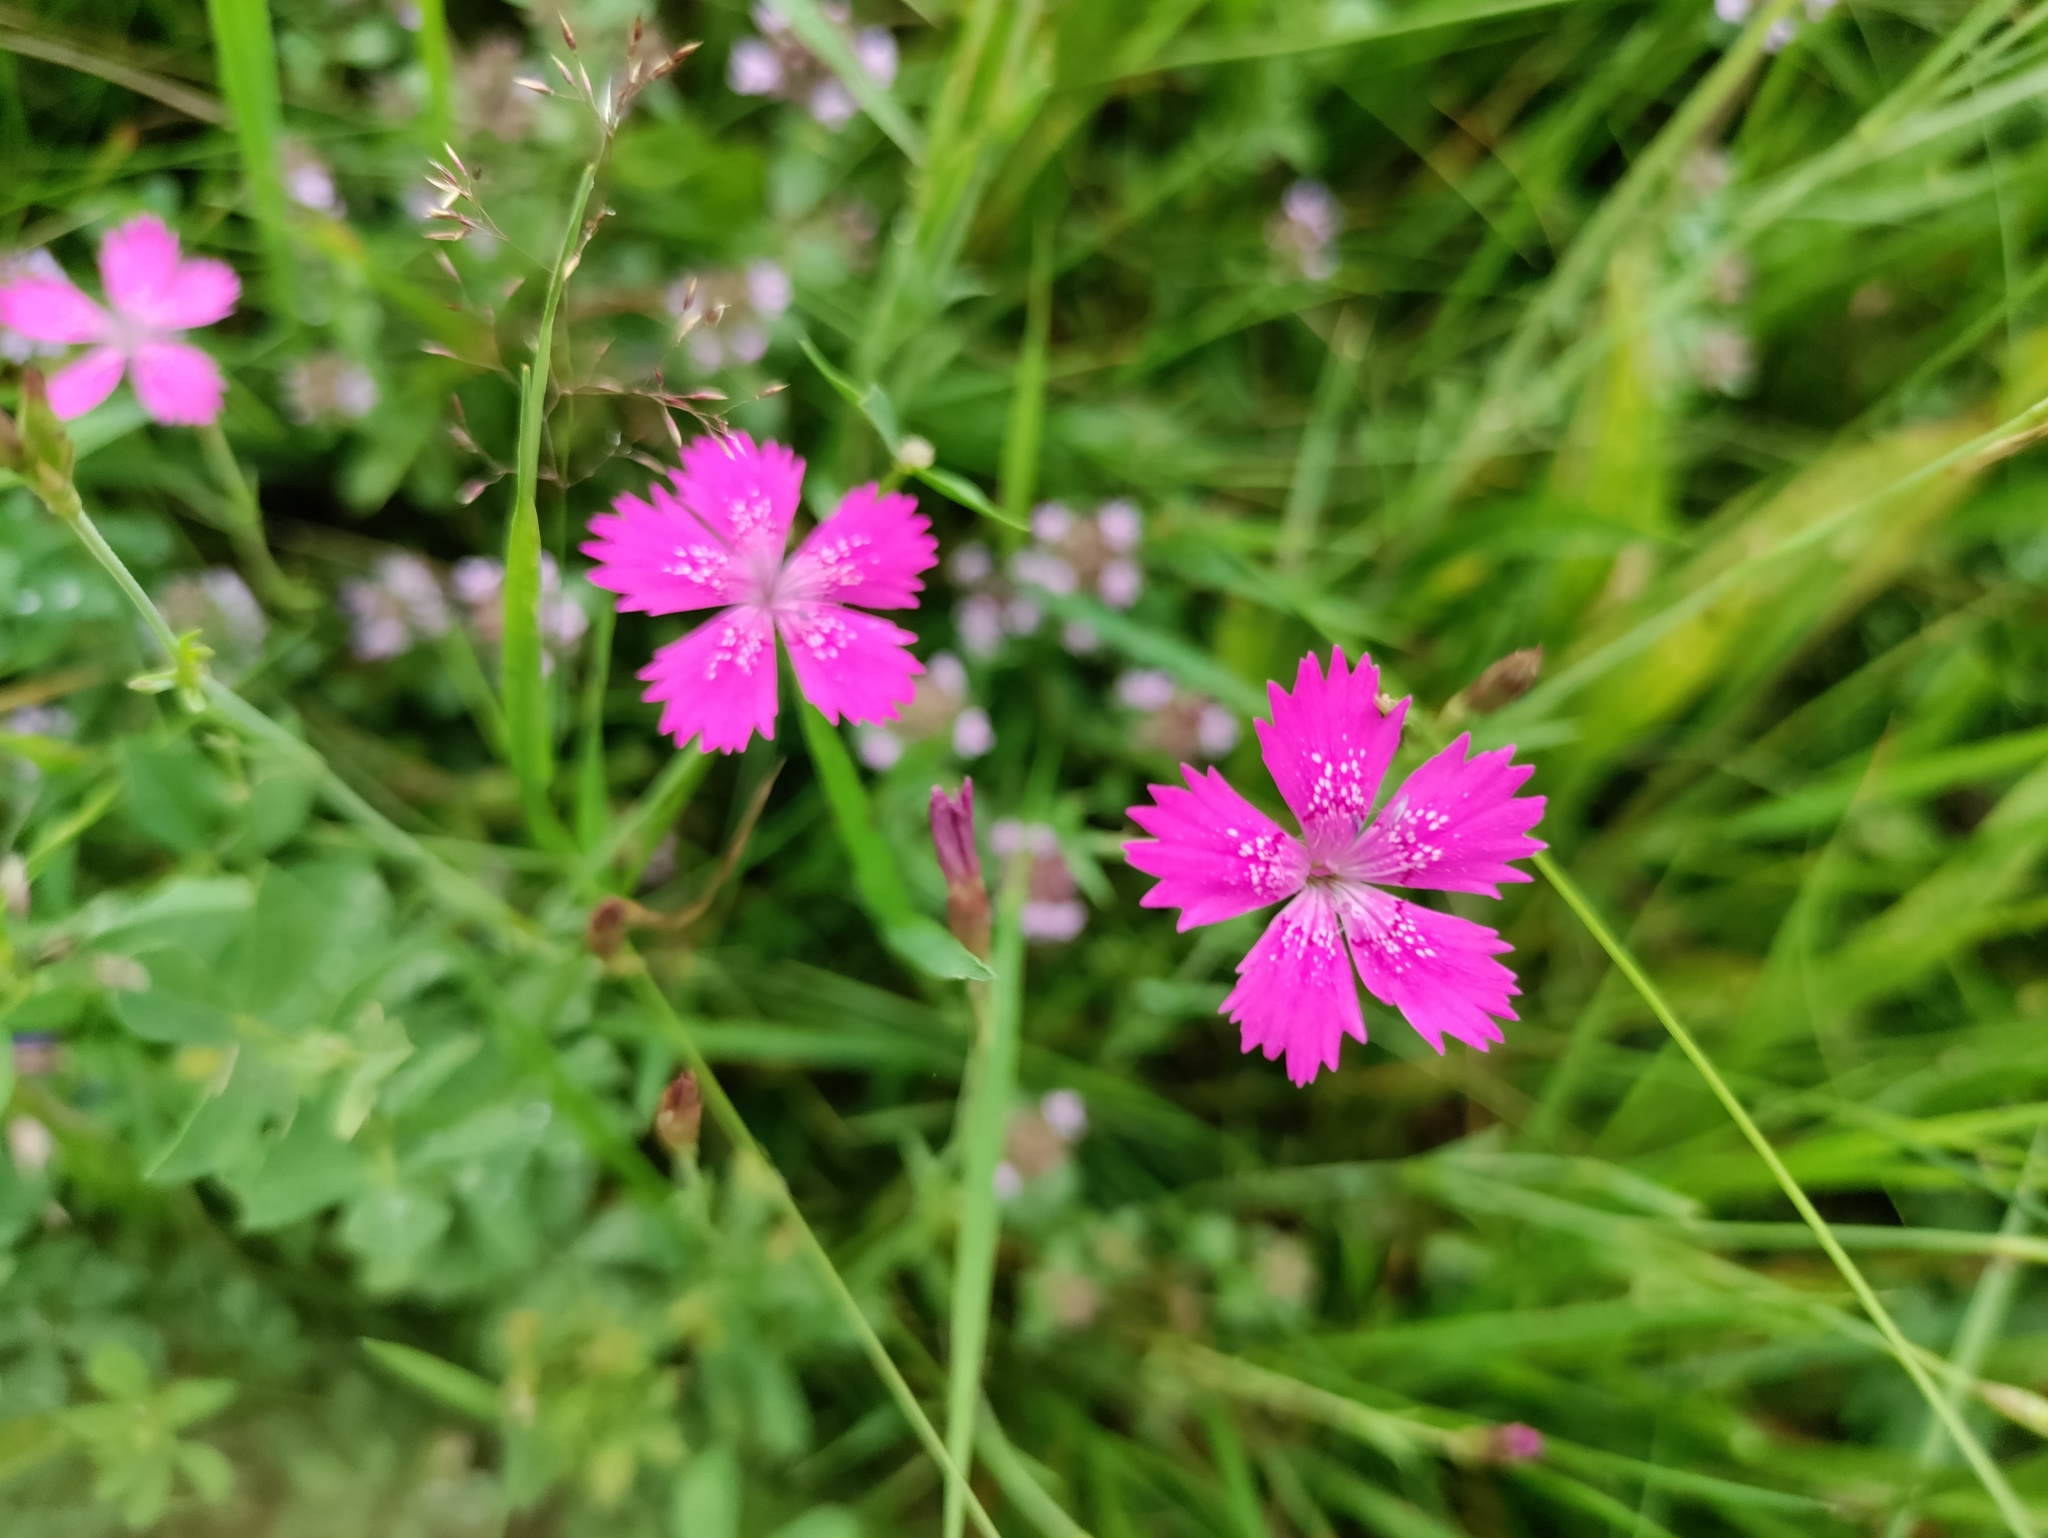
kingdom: Plantae
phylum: Tracheophyta
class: Magnoliopsida
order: Caryophyllales
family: Caryophyllaceae
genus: Dianthus
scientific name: Dianthus deltoides
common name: Maiden pink
